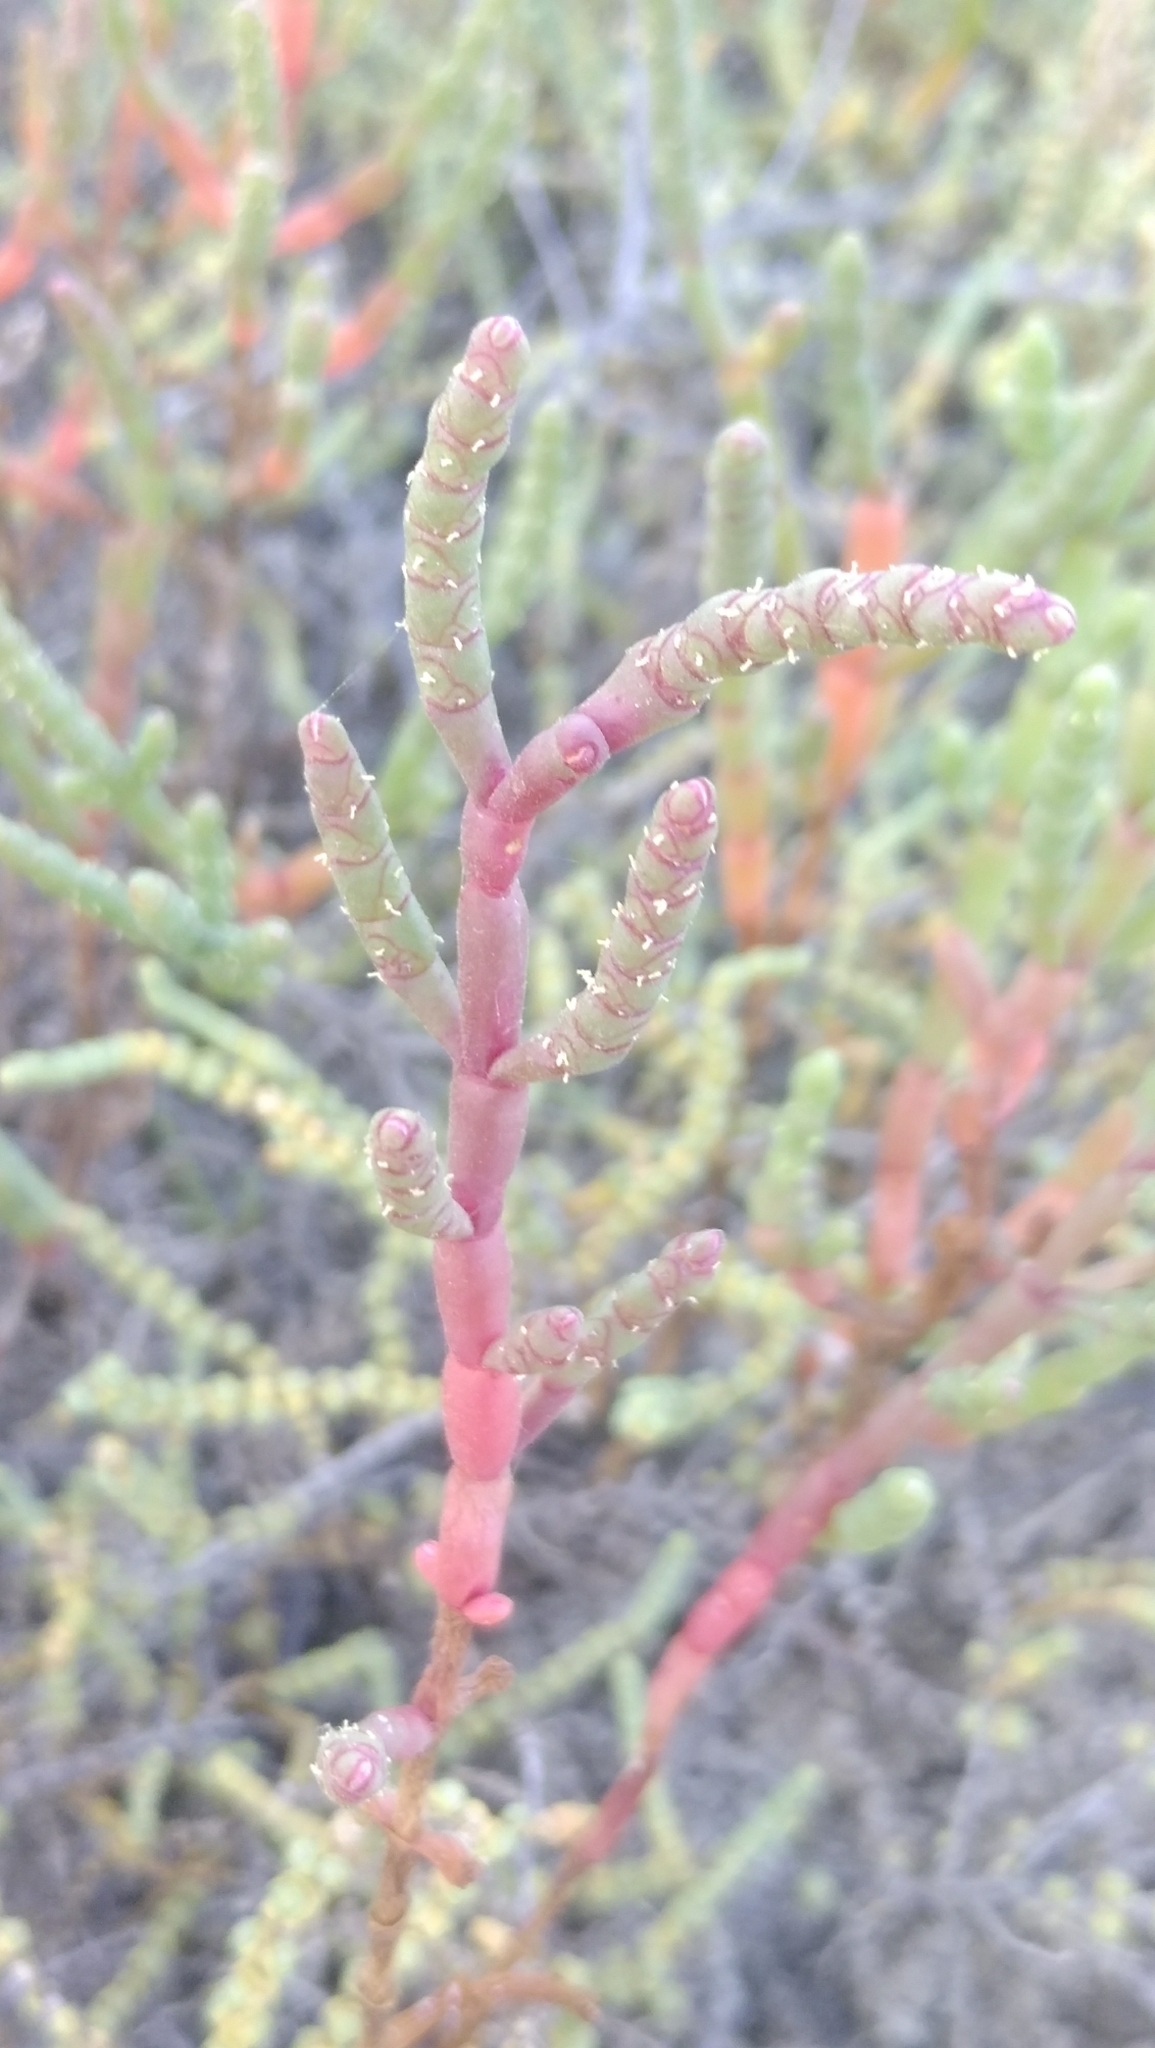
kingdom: Plantae
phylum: Tracheophyta
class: Magnoliopsida
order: Caryophyllales
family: Amaranthaceae
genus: Salicornia
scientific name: Salicornia perennans
